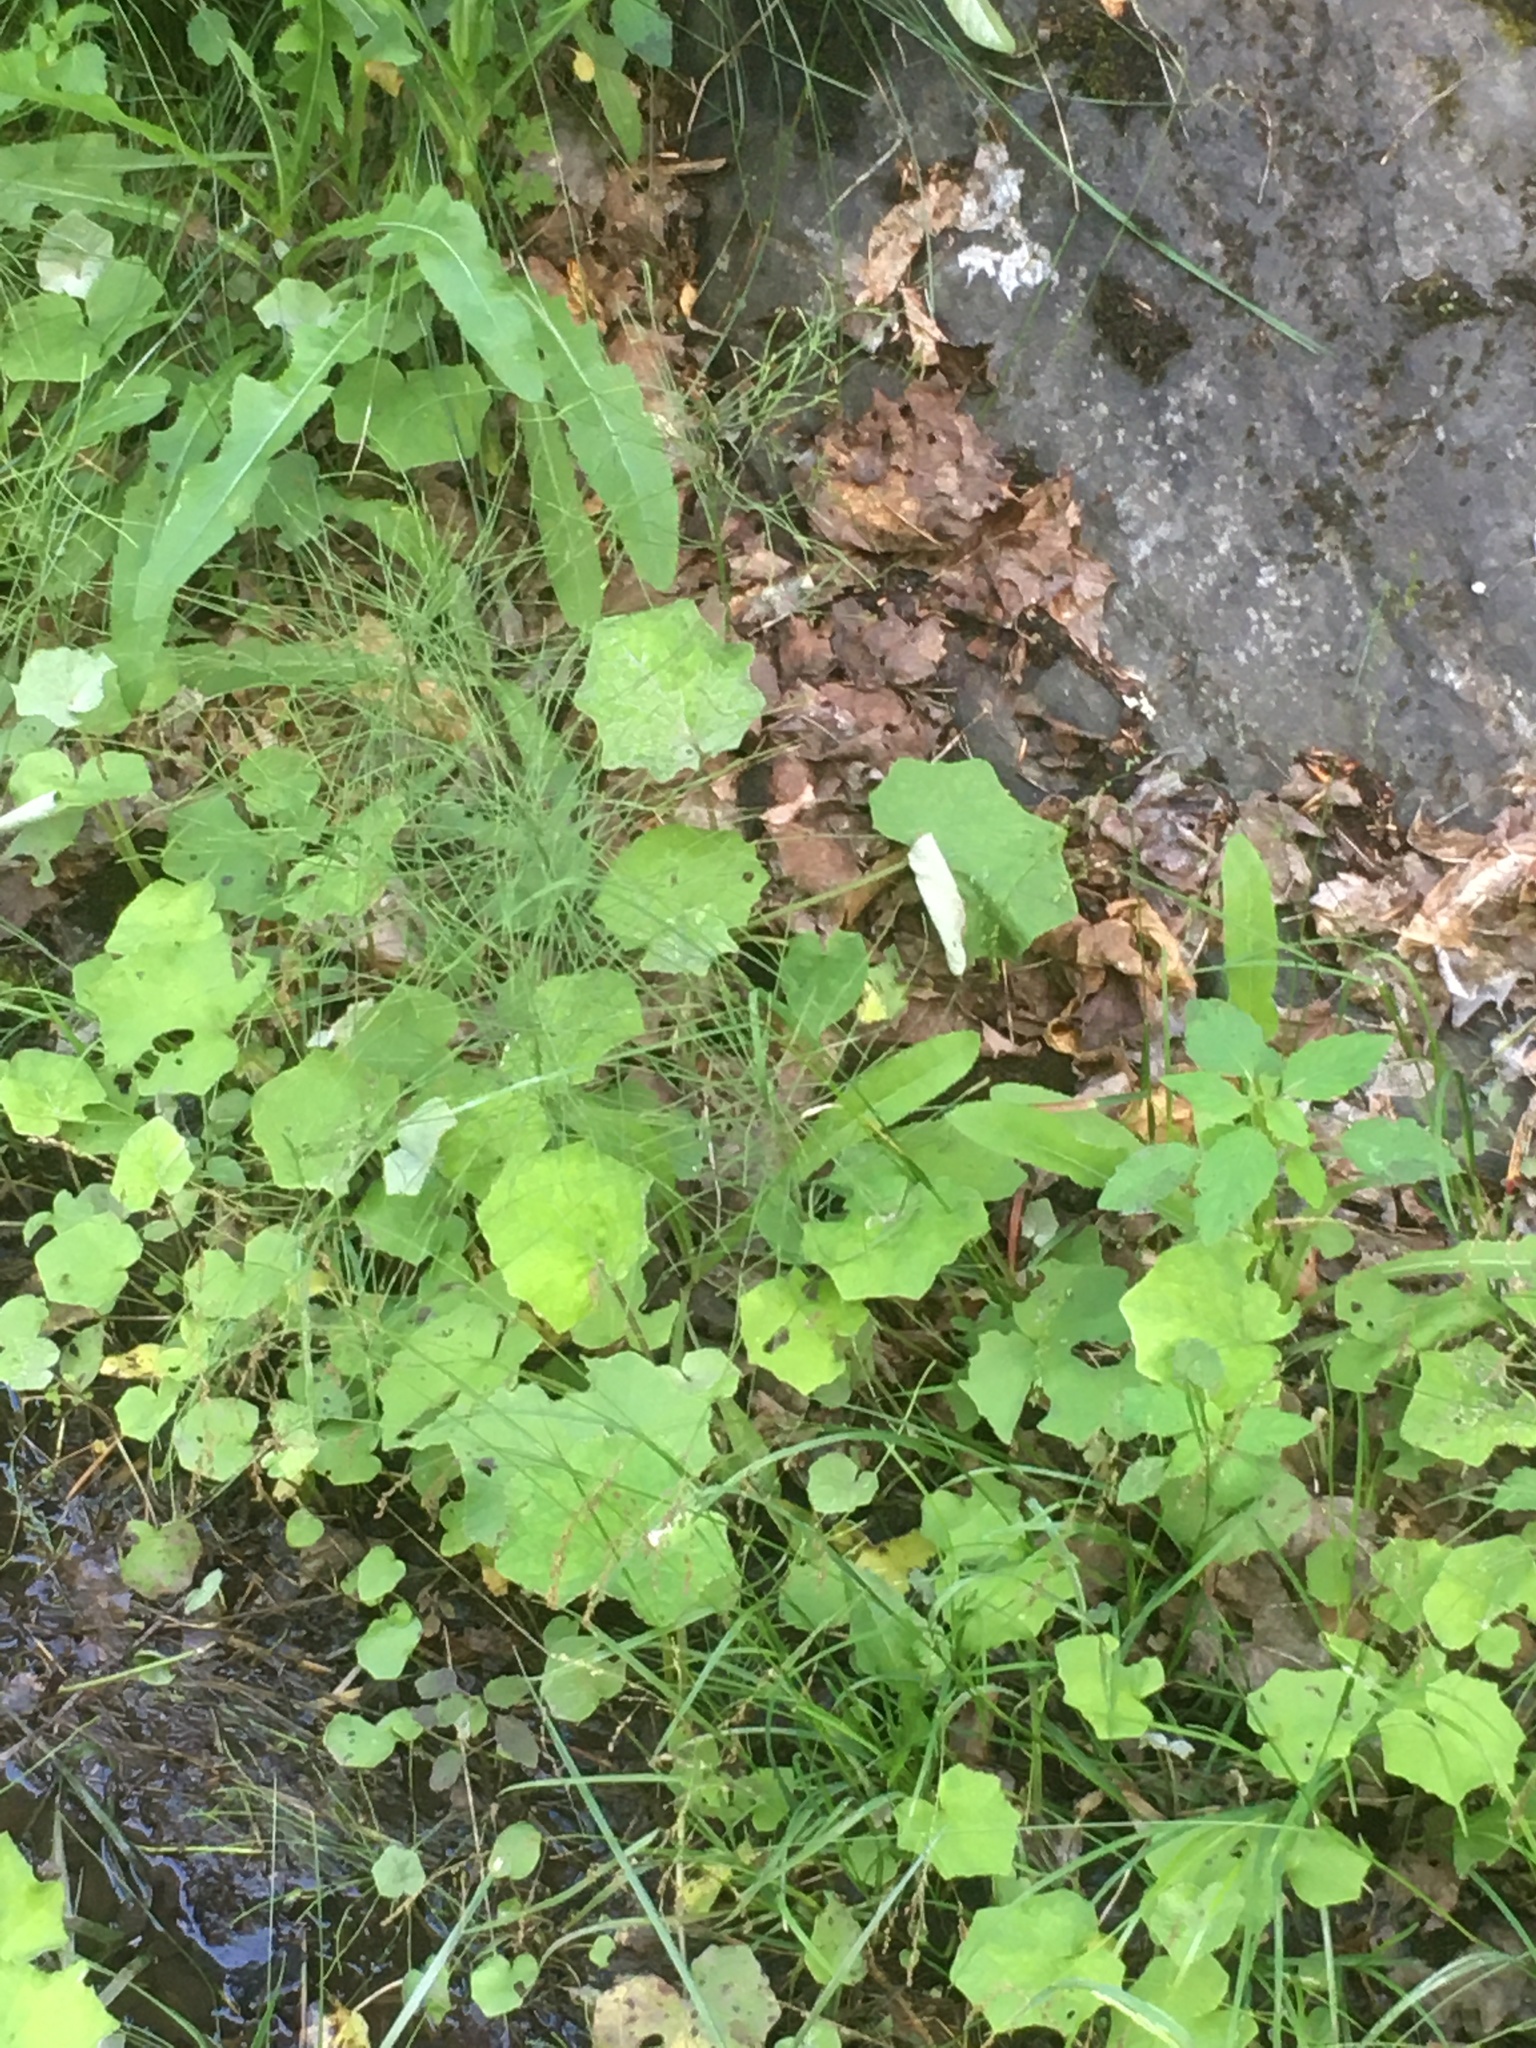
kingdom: Plantae
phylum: Tracheophyta
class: Magnoliopsida
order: Asterales
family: Asteraceae
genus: Tussilago
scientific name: Tussilago farfara
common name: Coltsfoot
